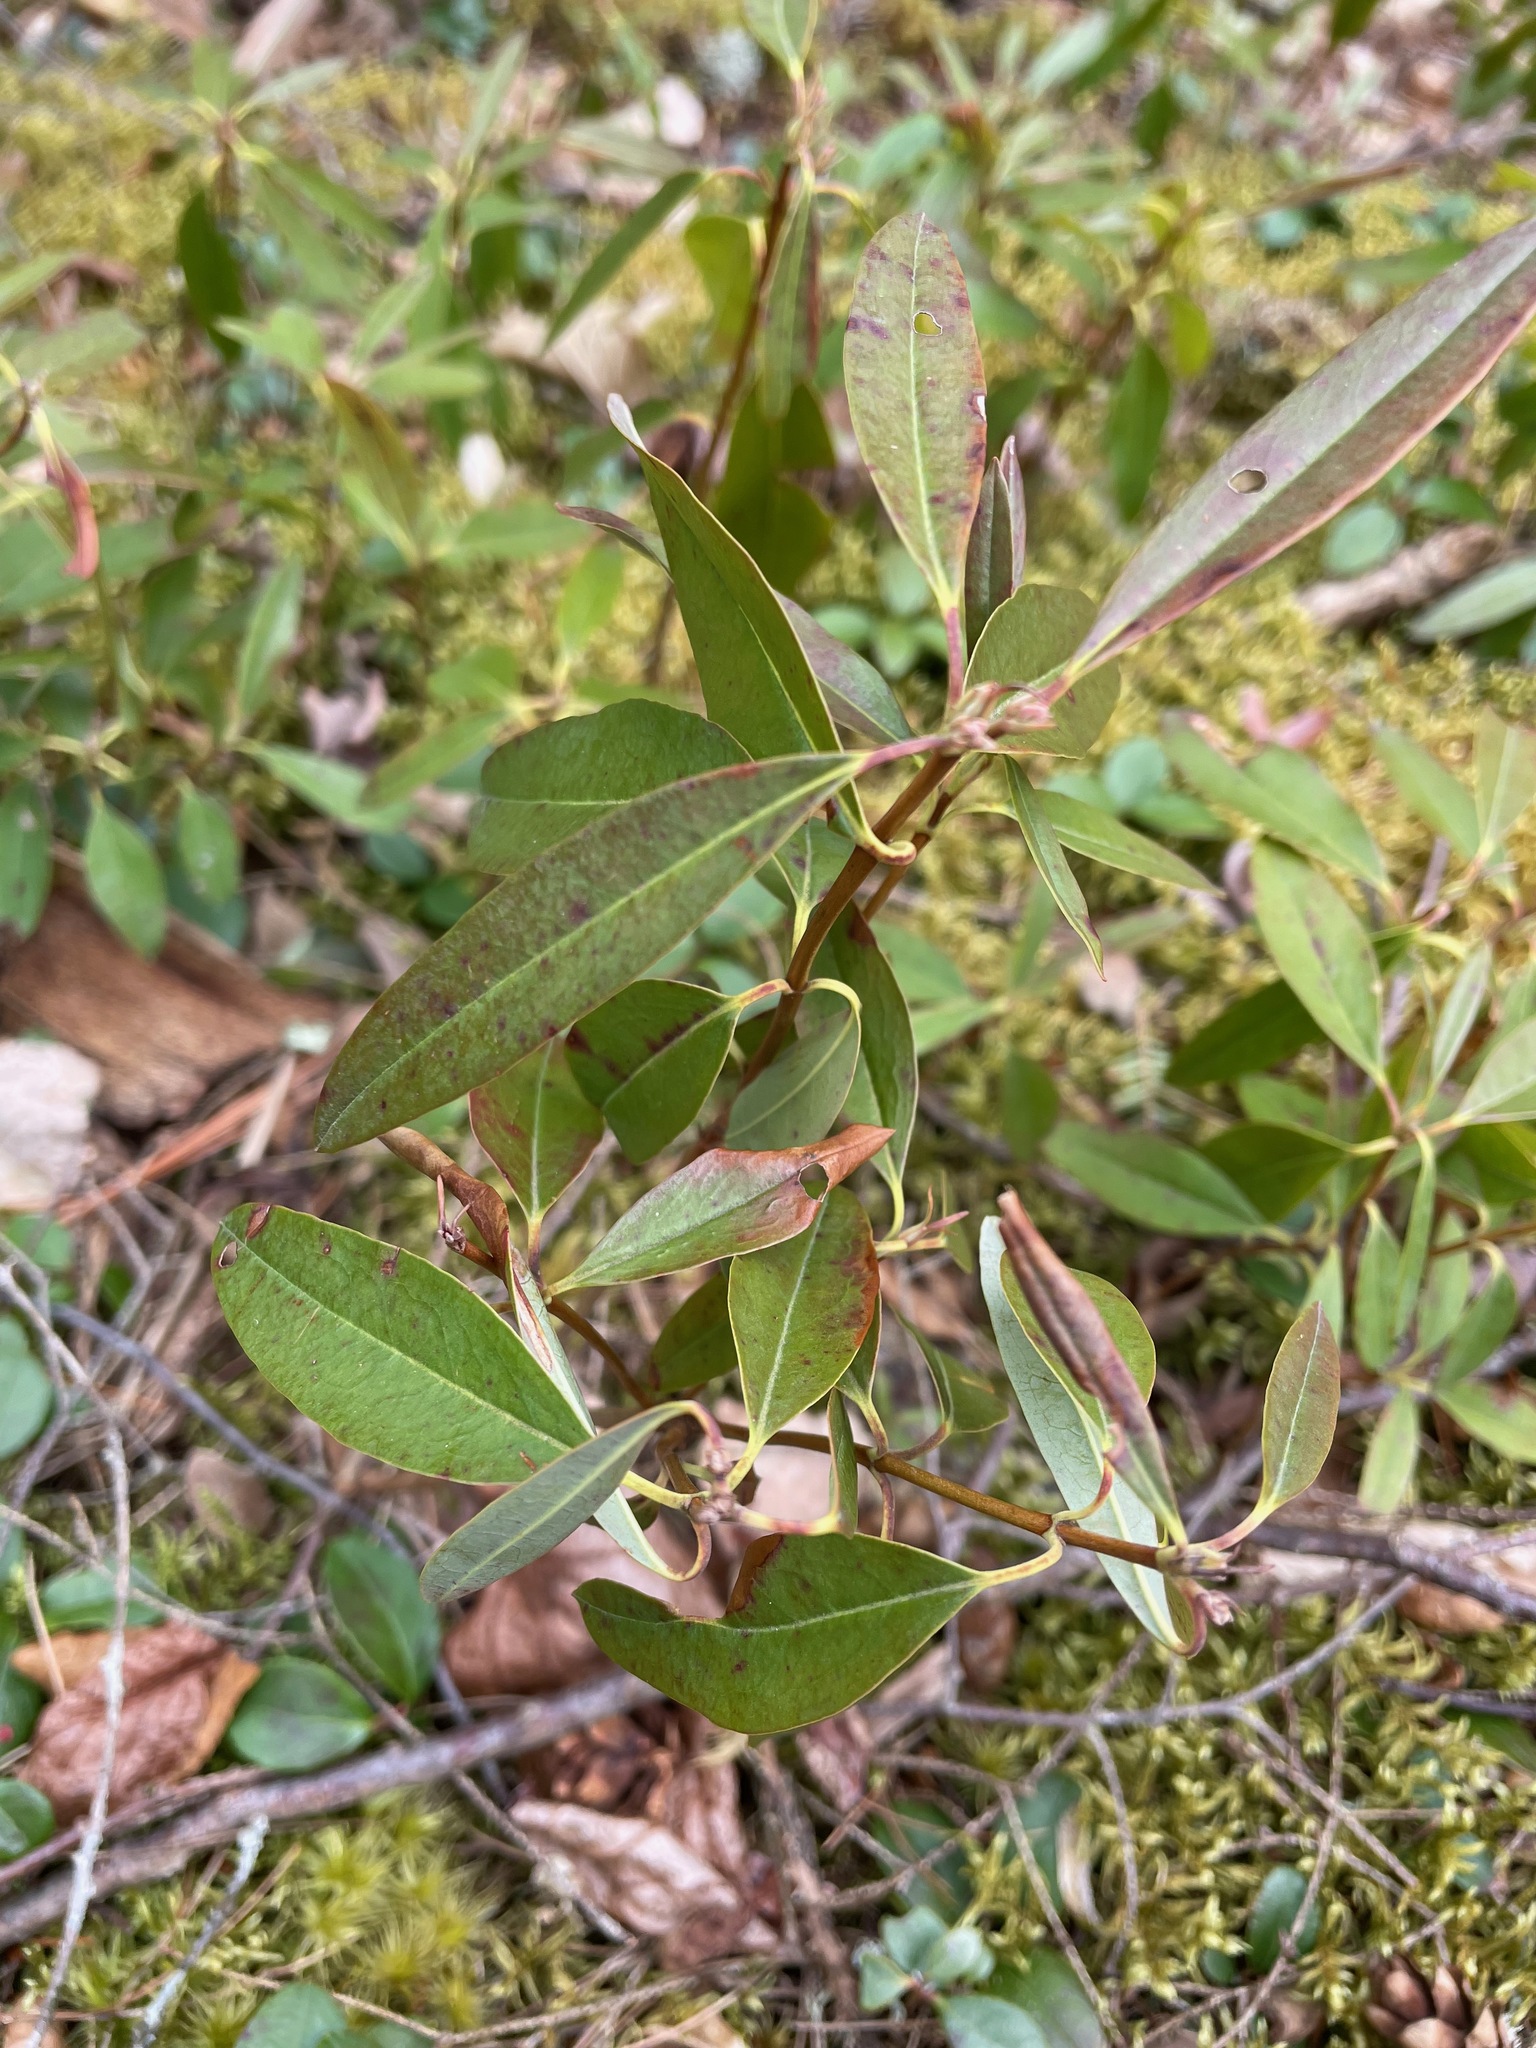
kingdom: Plantae
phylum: Tracheophyta
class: Magnoliopsida
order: Ericales
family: Ericaceae
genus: Kalmia
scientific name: Kalmia angustifolia
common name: Sheep-laurel
